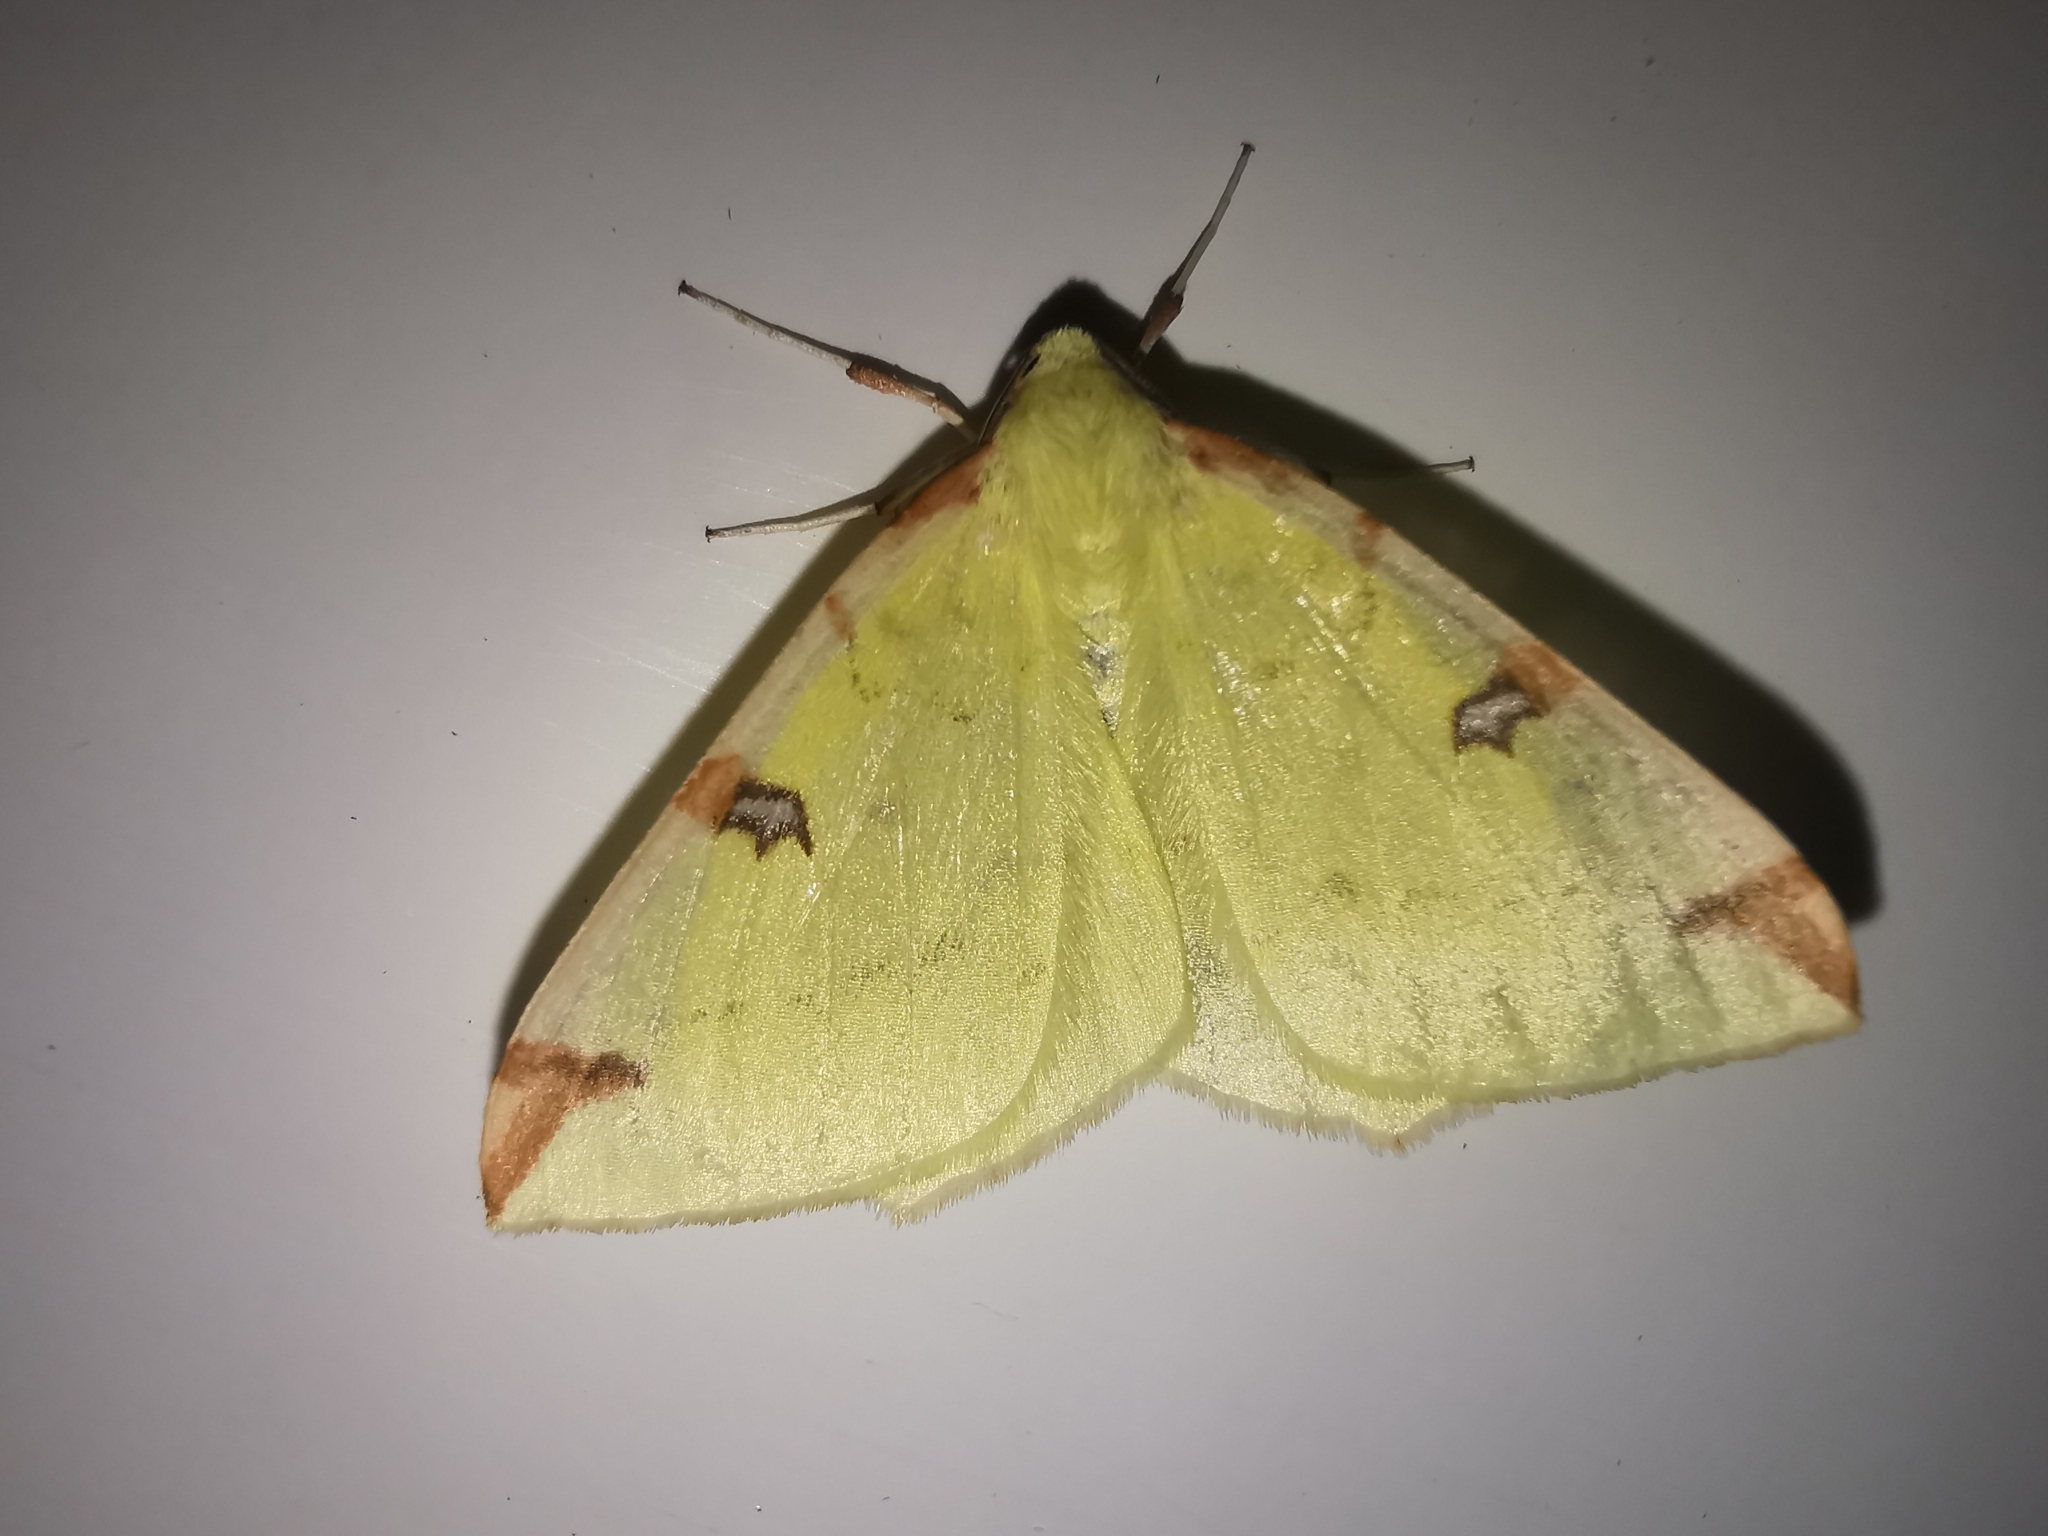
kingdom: Animalia
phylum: Arthropoda
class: Insecta
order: Lepidoptera
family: Geometridae
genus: Opisthograptis
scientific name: Opisthograptis luteolata
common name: Brimstone moth
